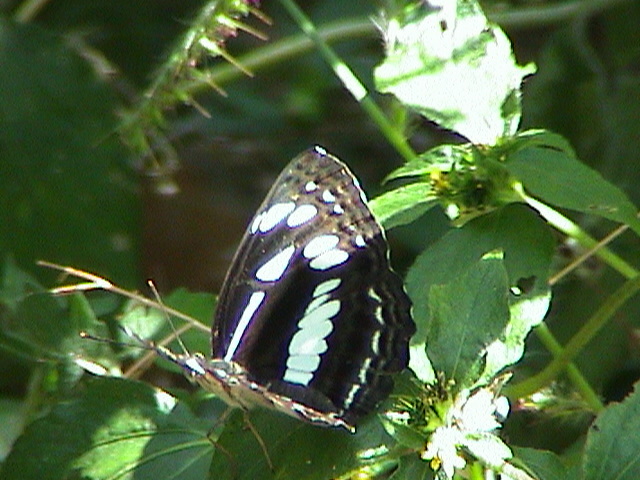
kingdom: Animalia
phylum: Arthropoda
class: Insecta
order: Lepidoptera
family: Nymphalidae
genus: Neptis
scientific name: Neptis jumbah
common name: Chestnut-streaked sailer
